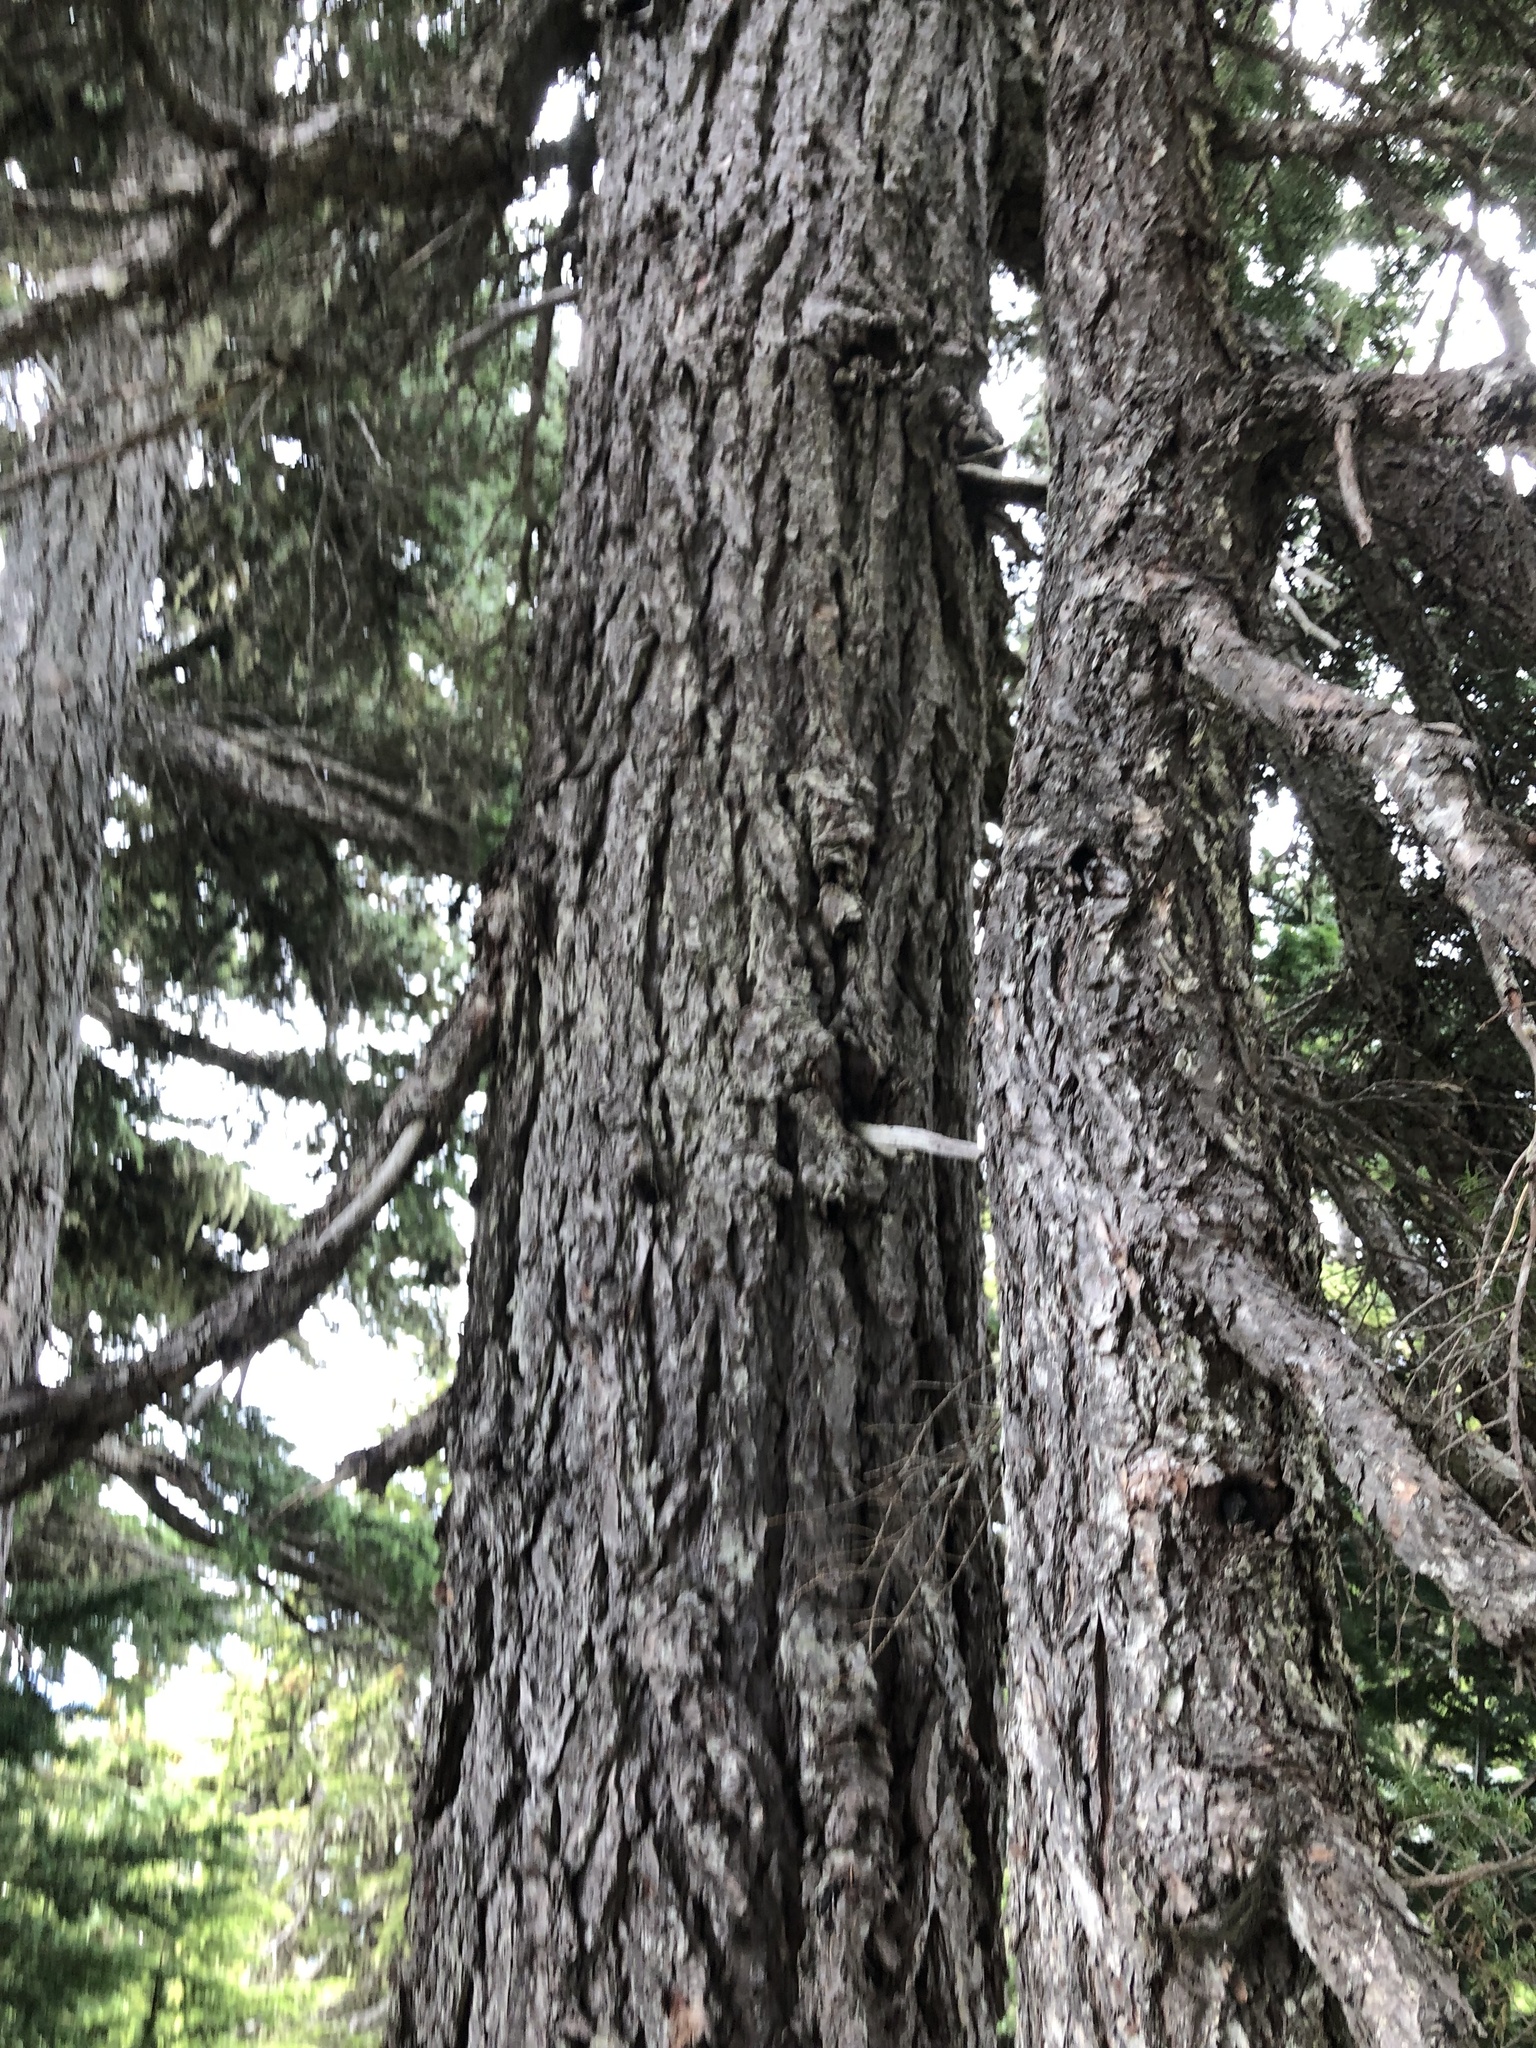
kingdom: Plantae
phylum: Tracheophyta
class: Pinopsida
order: Pinales
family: Pinaceae
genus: Tsuga
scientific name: Tsuga mertensiana
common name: Mountain hemlock
